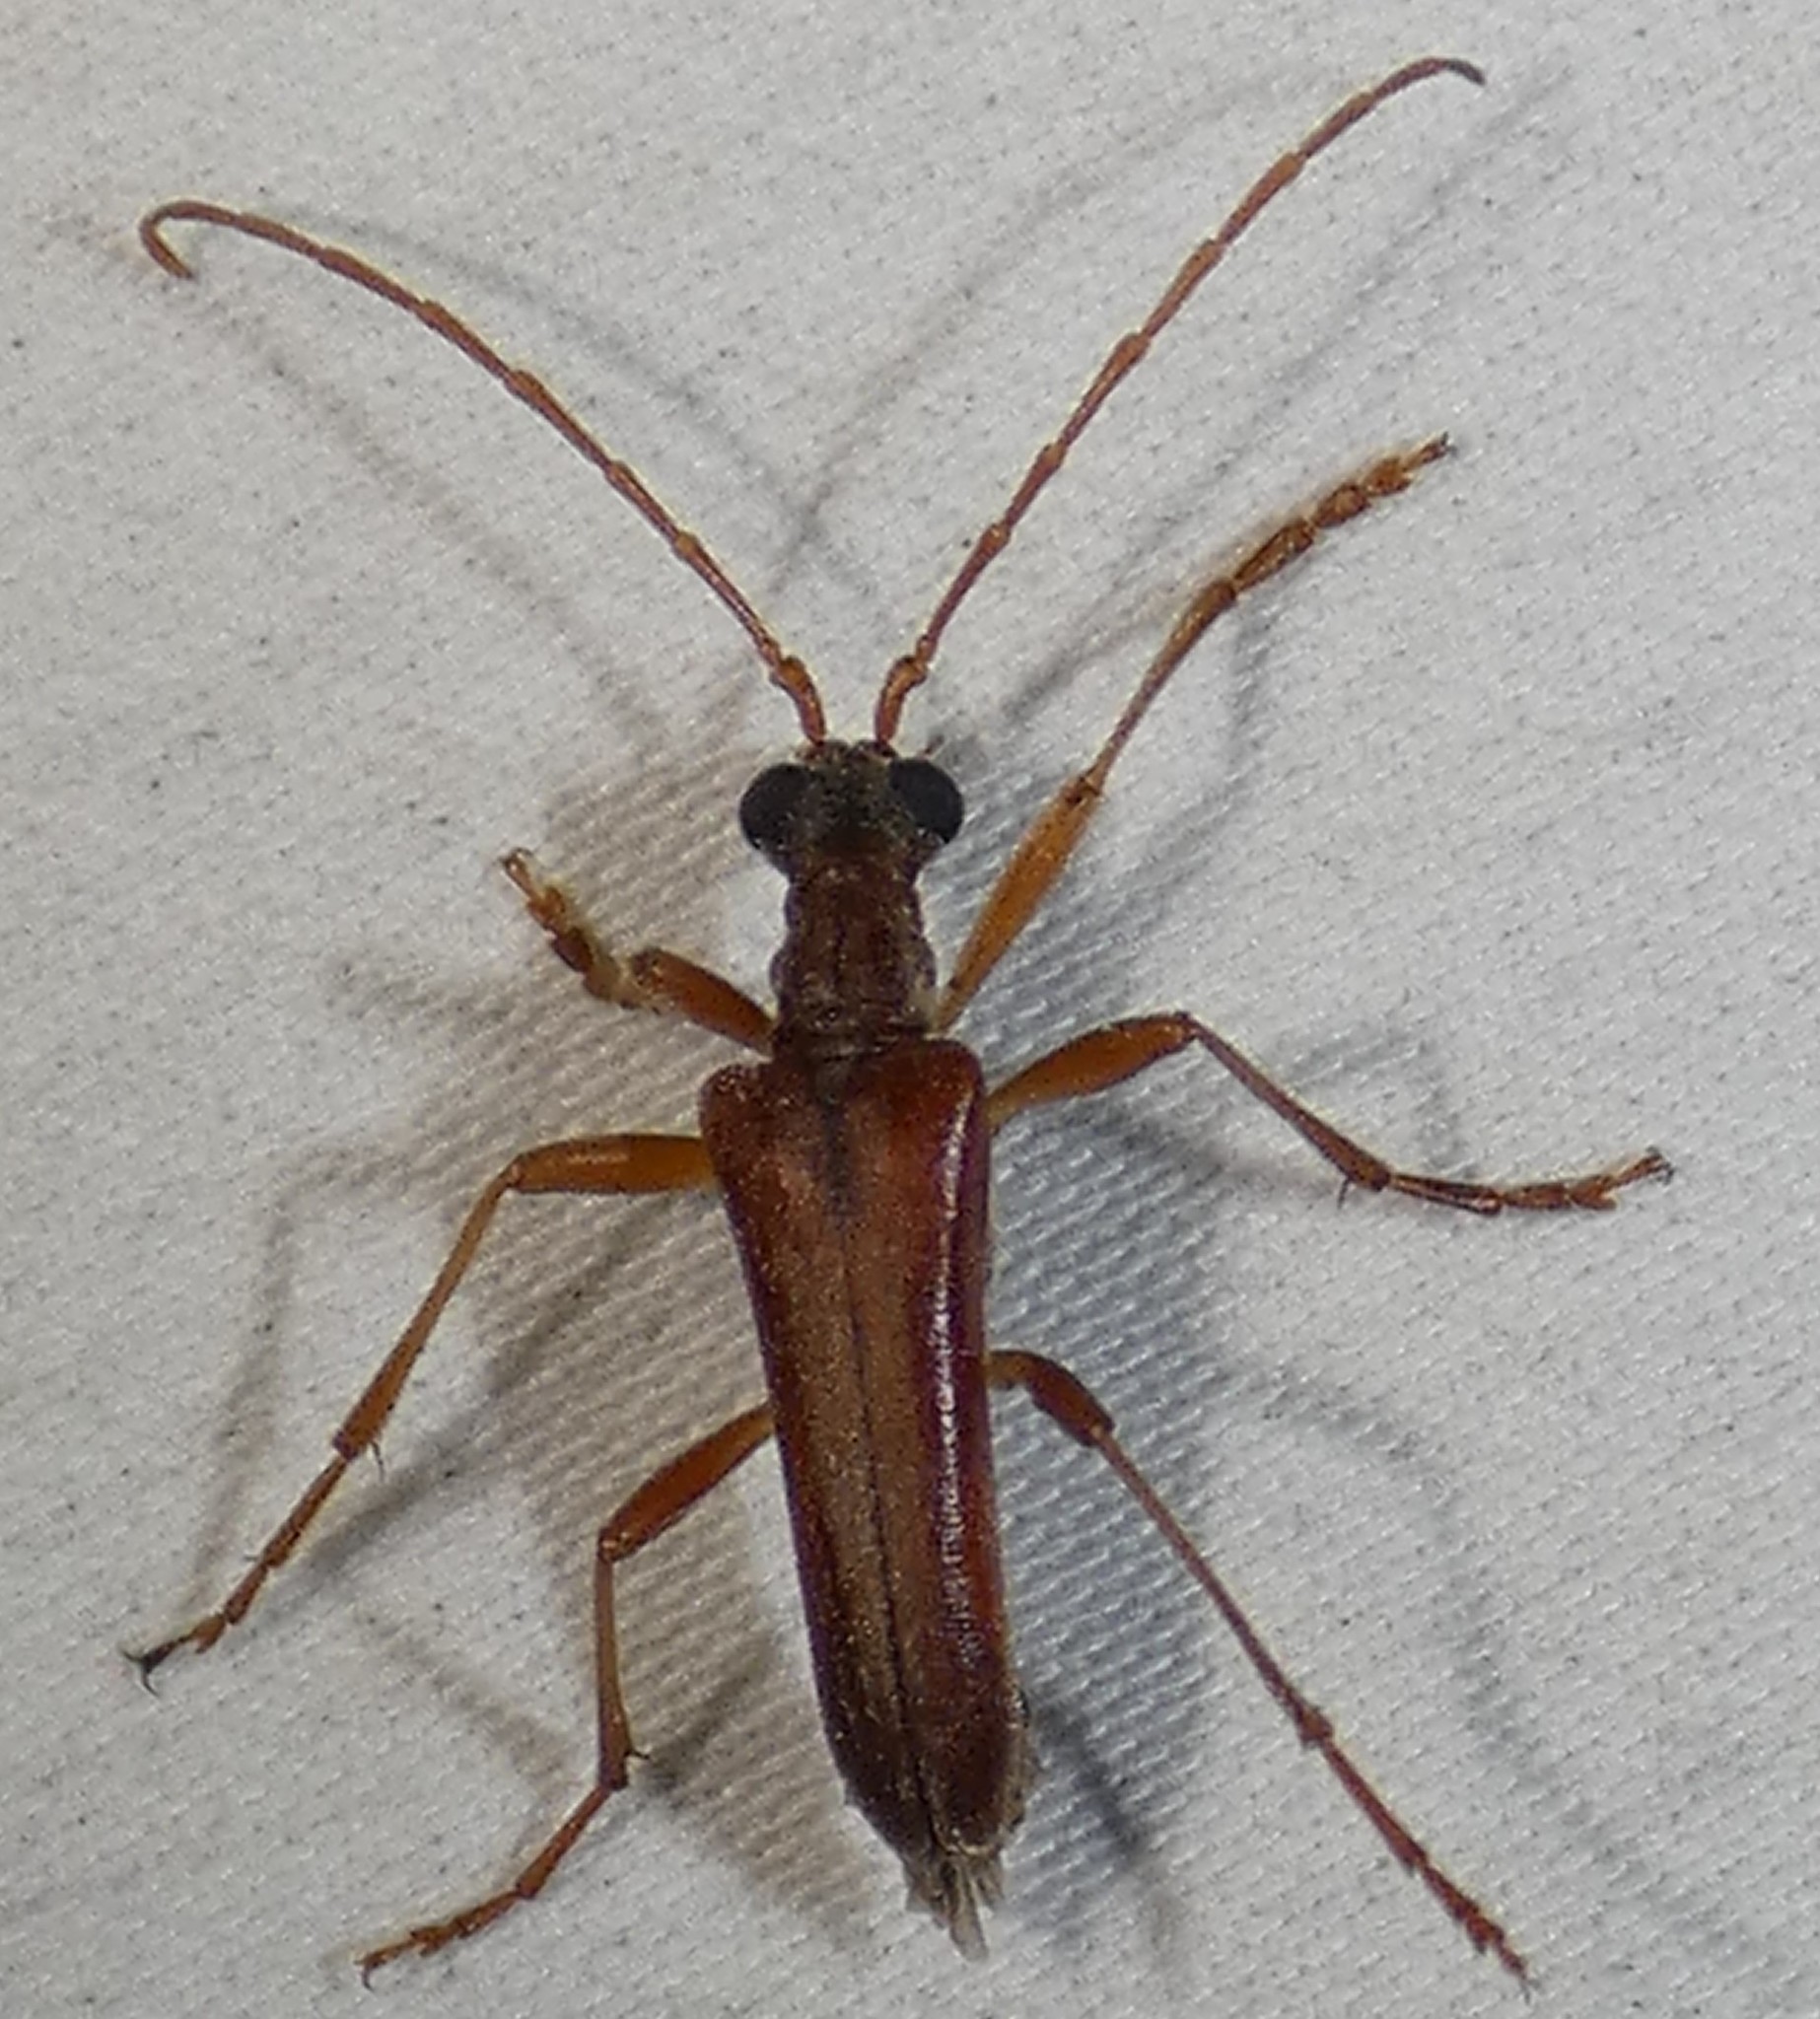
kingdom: Animalia
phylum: Arthropoda
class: Insecta
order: Coleoptera
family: Cerambycidae
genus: Stenocorus
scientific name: Stenocorus cinnamopterus
